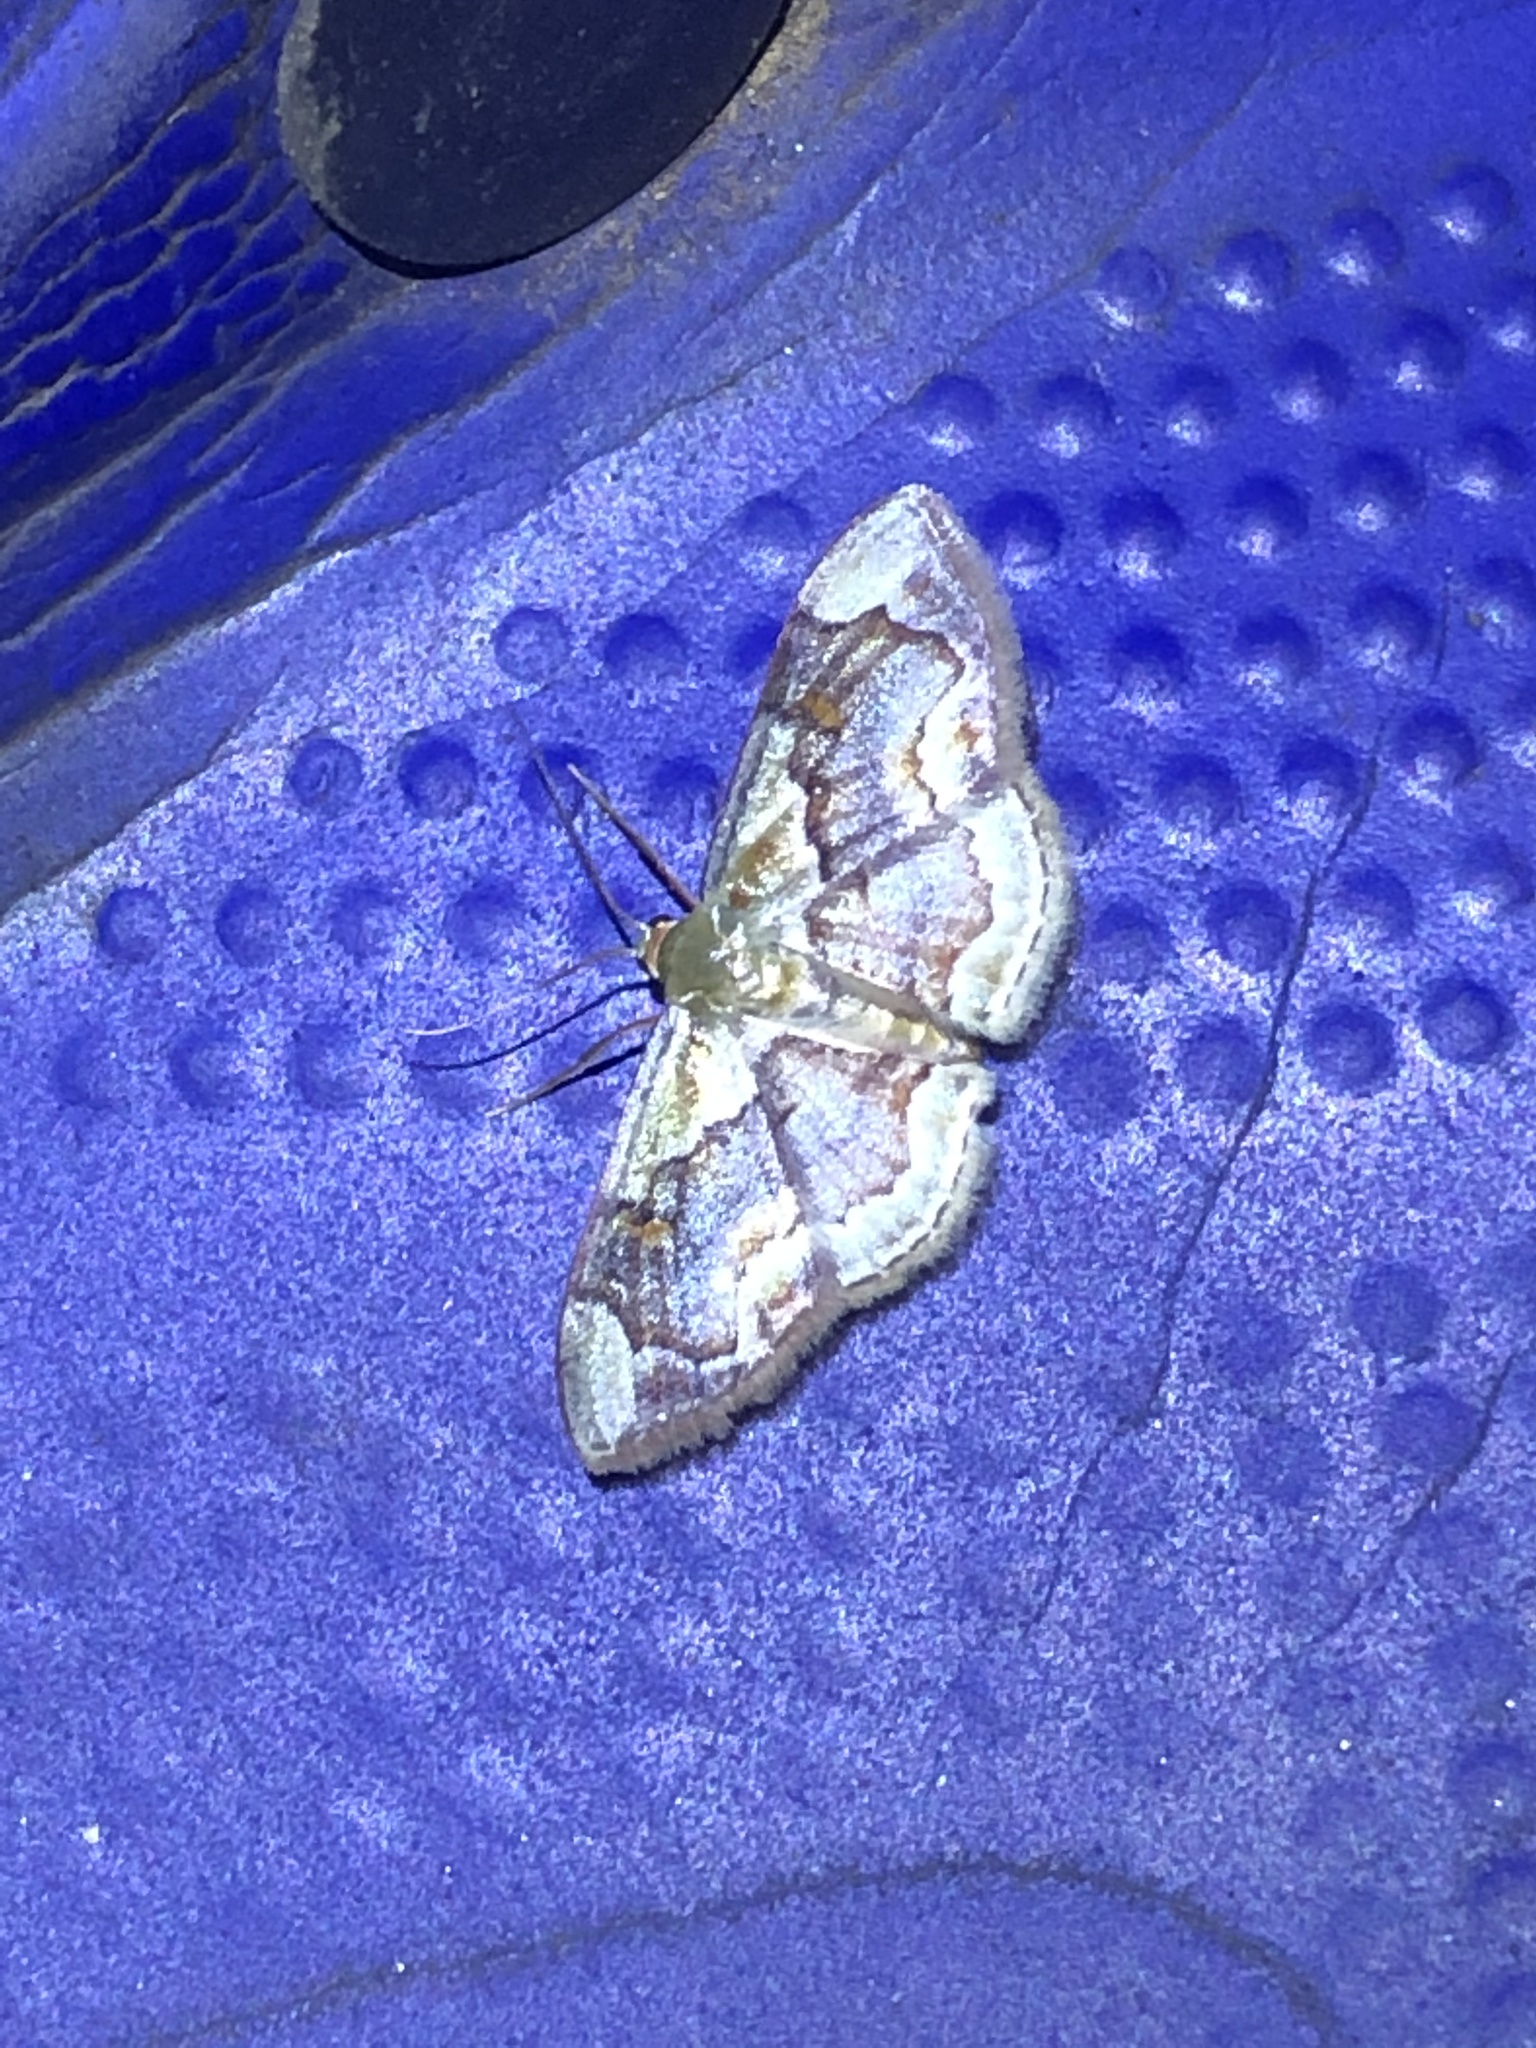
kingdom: Animalia
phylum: Arthropoda
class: Insecta
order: Lepidoptera
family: Geometridae
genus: Leptostales
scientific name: Leptostales angulata
